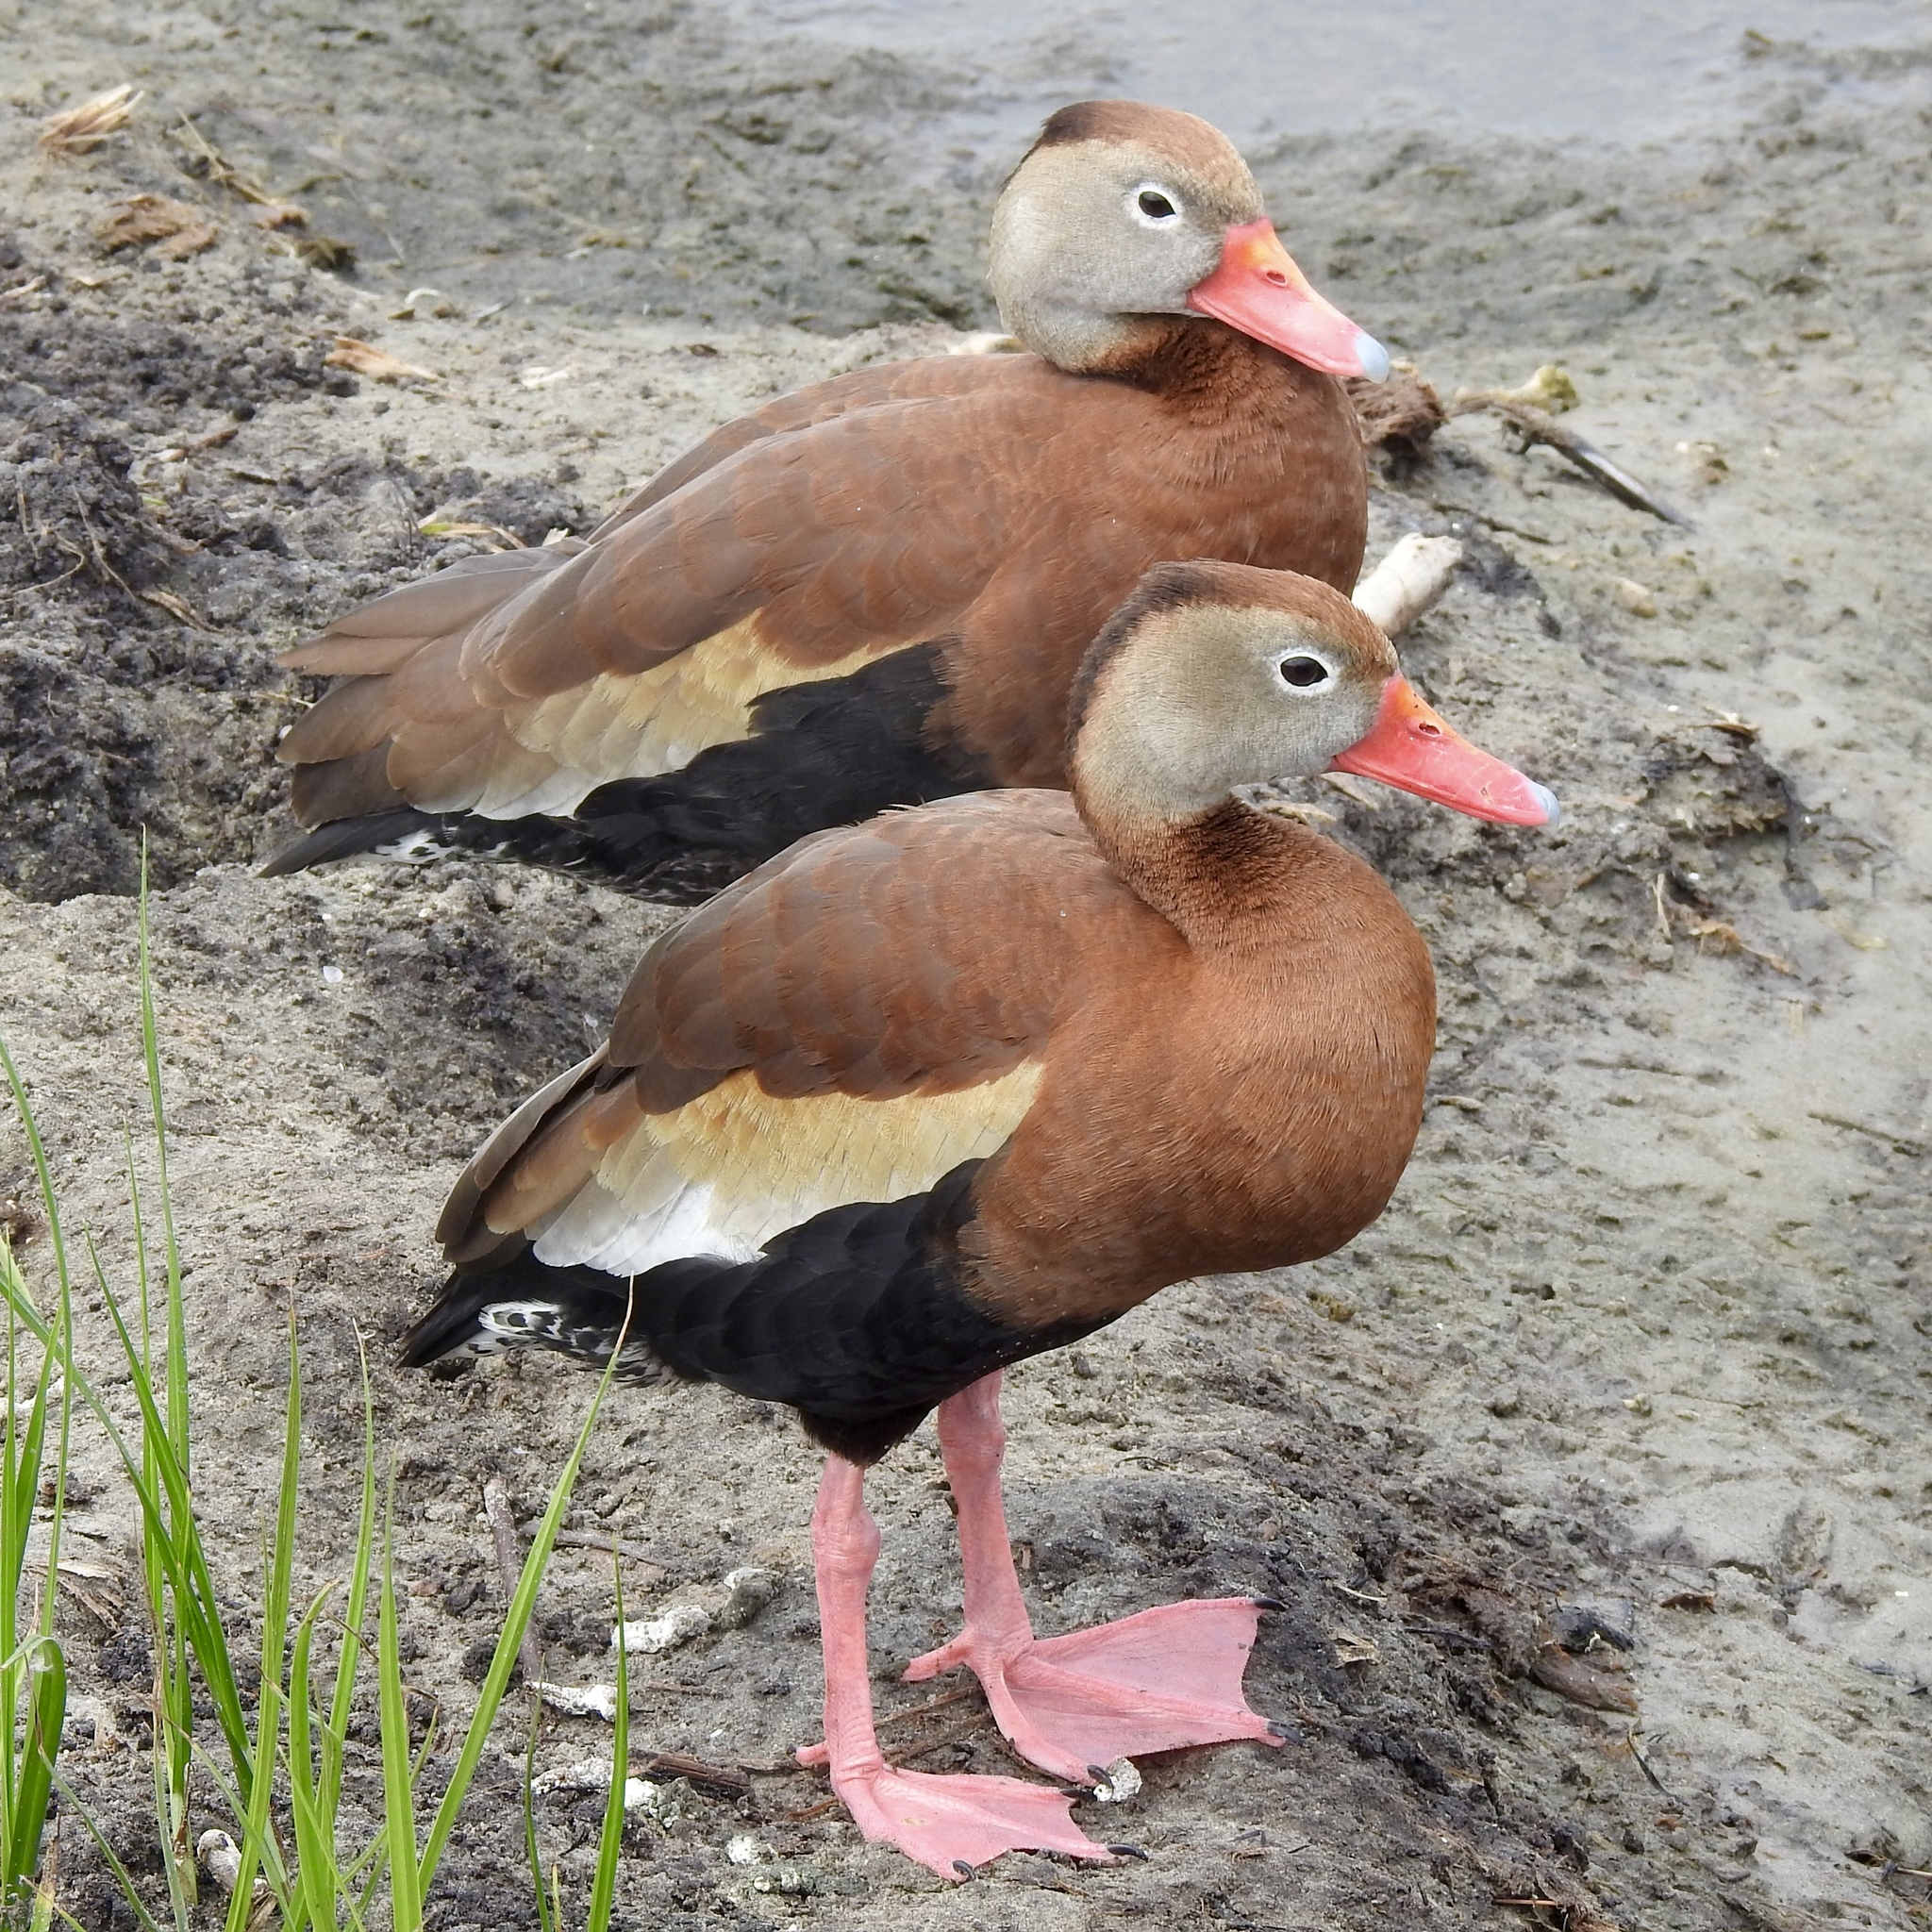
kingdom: Animalia
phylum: Chordata
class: Aves
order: Anseriformes
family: Anatidae
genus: Dendrocygna
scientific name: Dendrocygna autumnalis
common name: Black-bellied whistling duck
